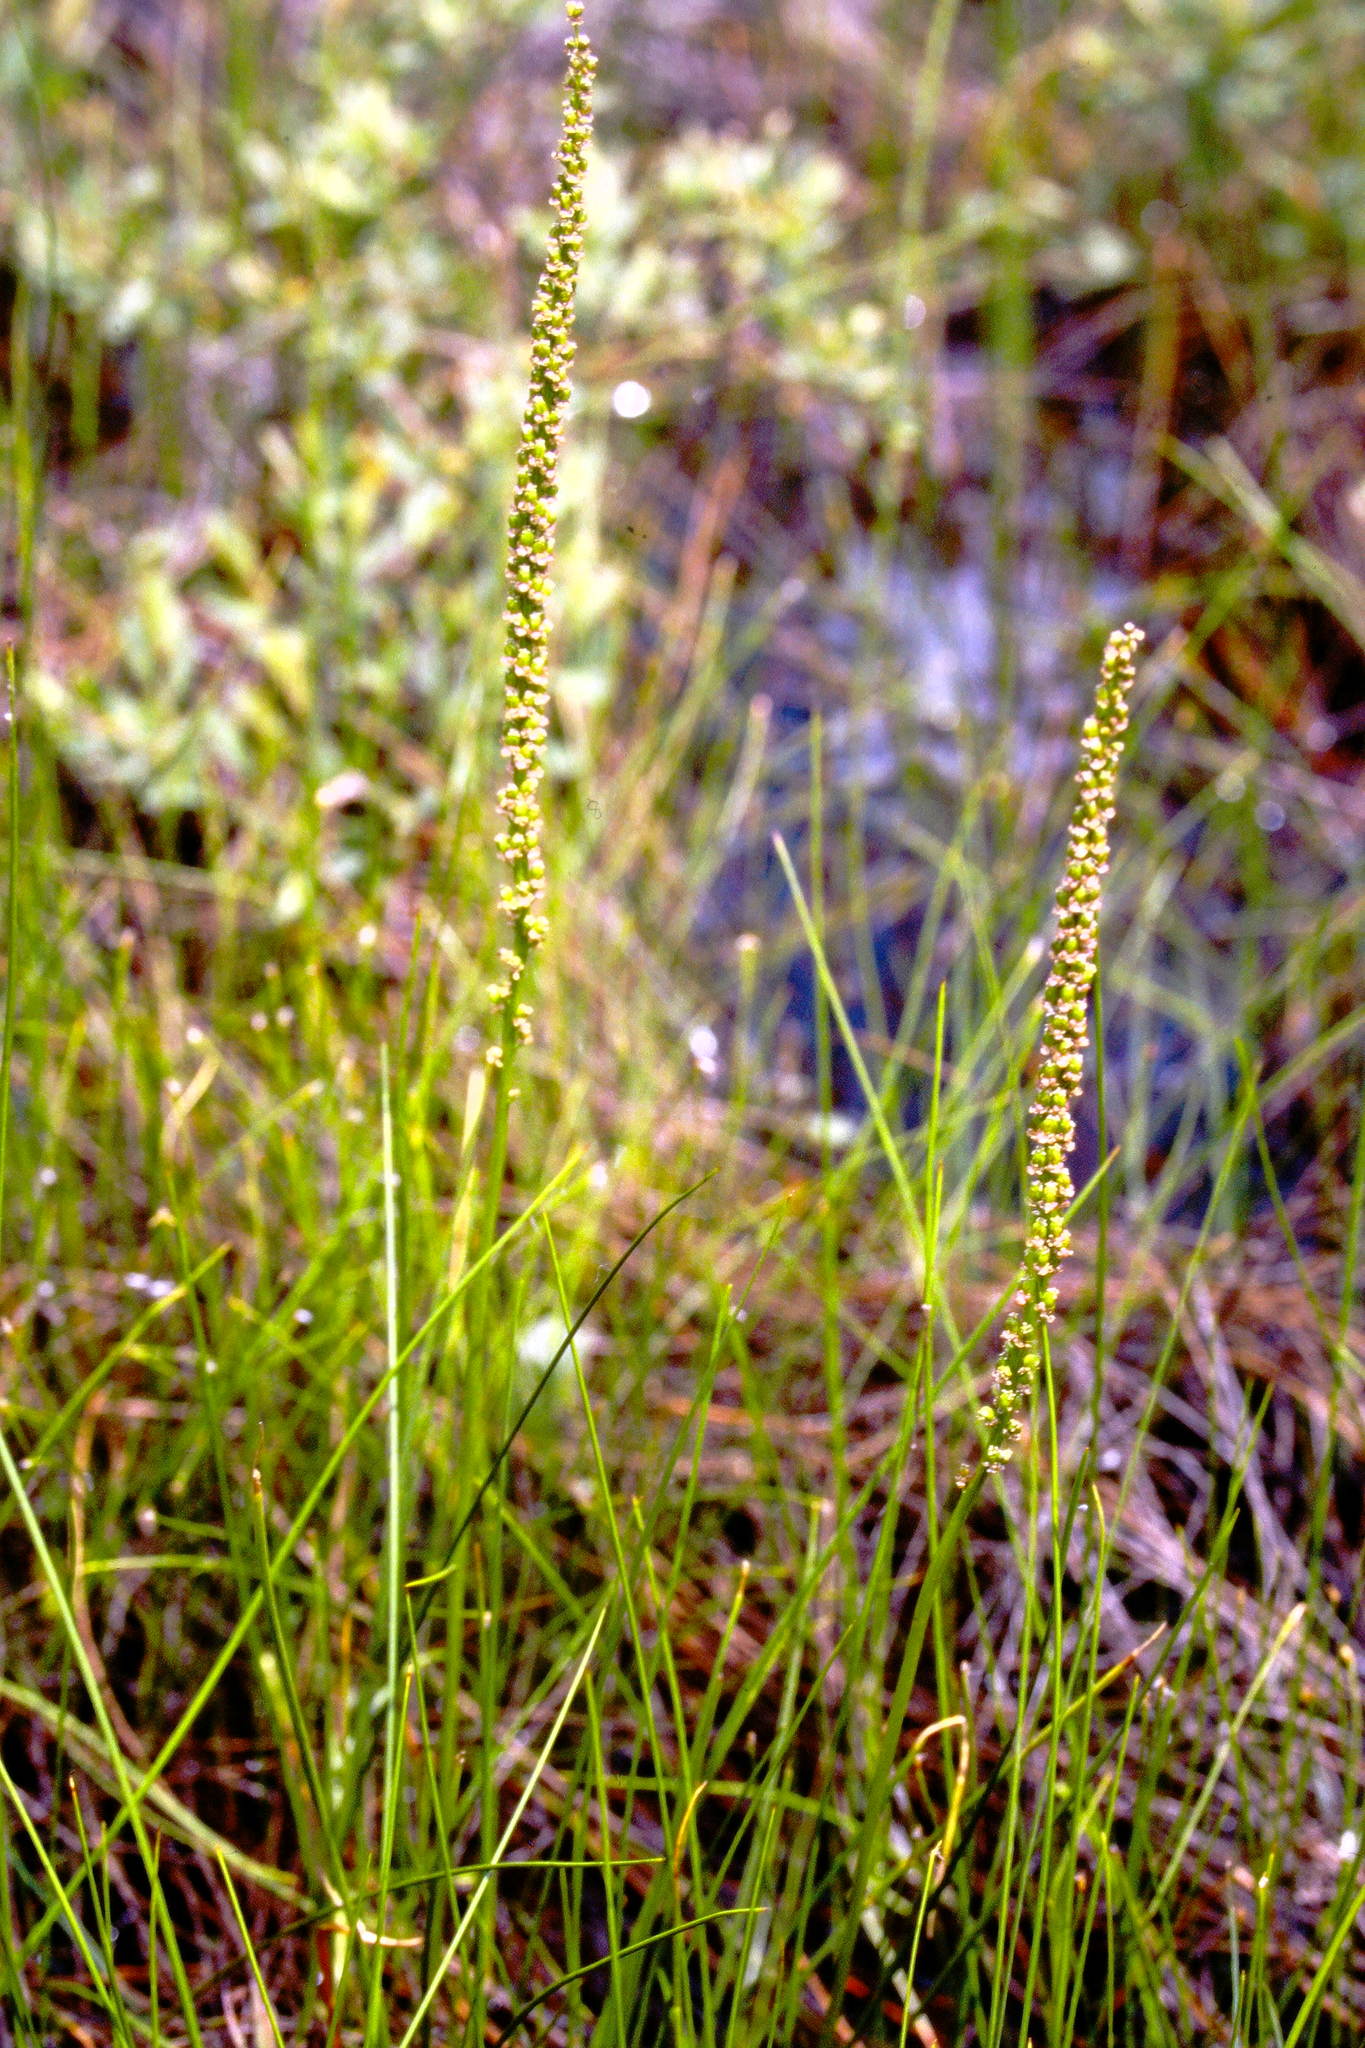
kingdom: Plantae
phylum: Tracheophyta
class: Liliopsida
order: Alismatales
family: Juncaginaceae
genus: Triglochin
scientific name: Triglochin maritima
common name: Sea arrowgrass
